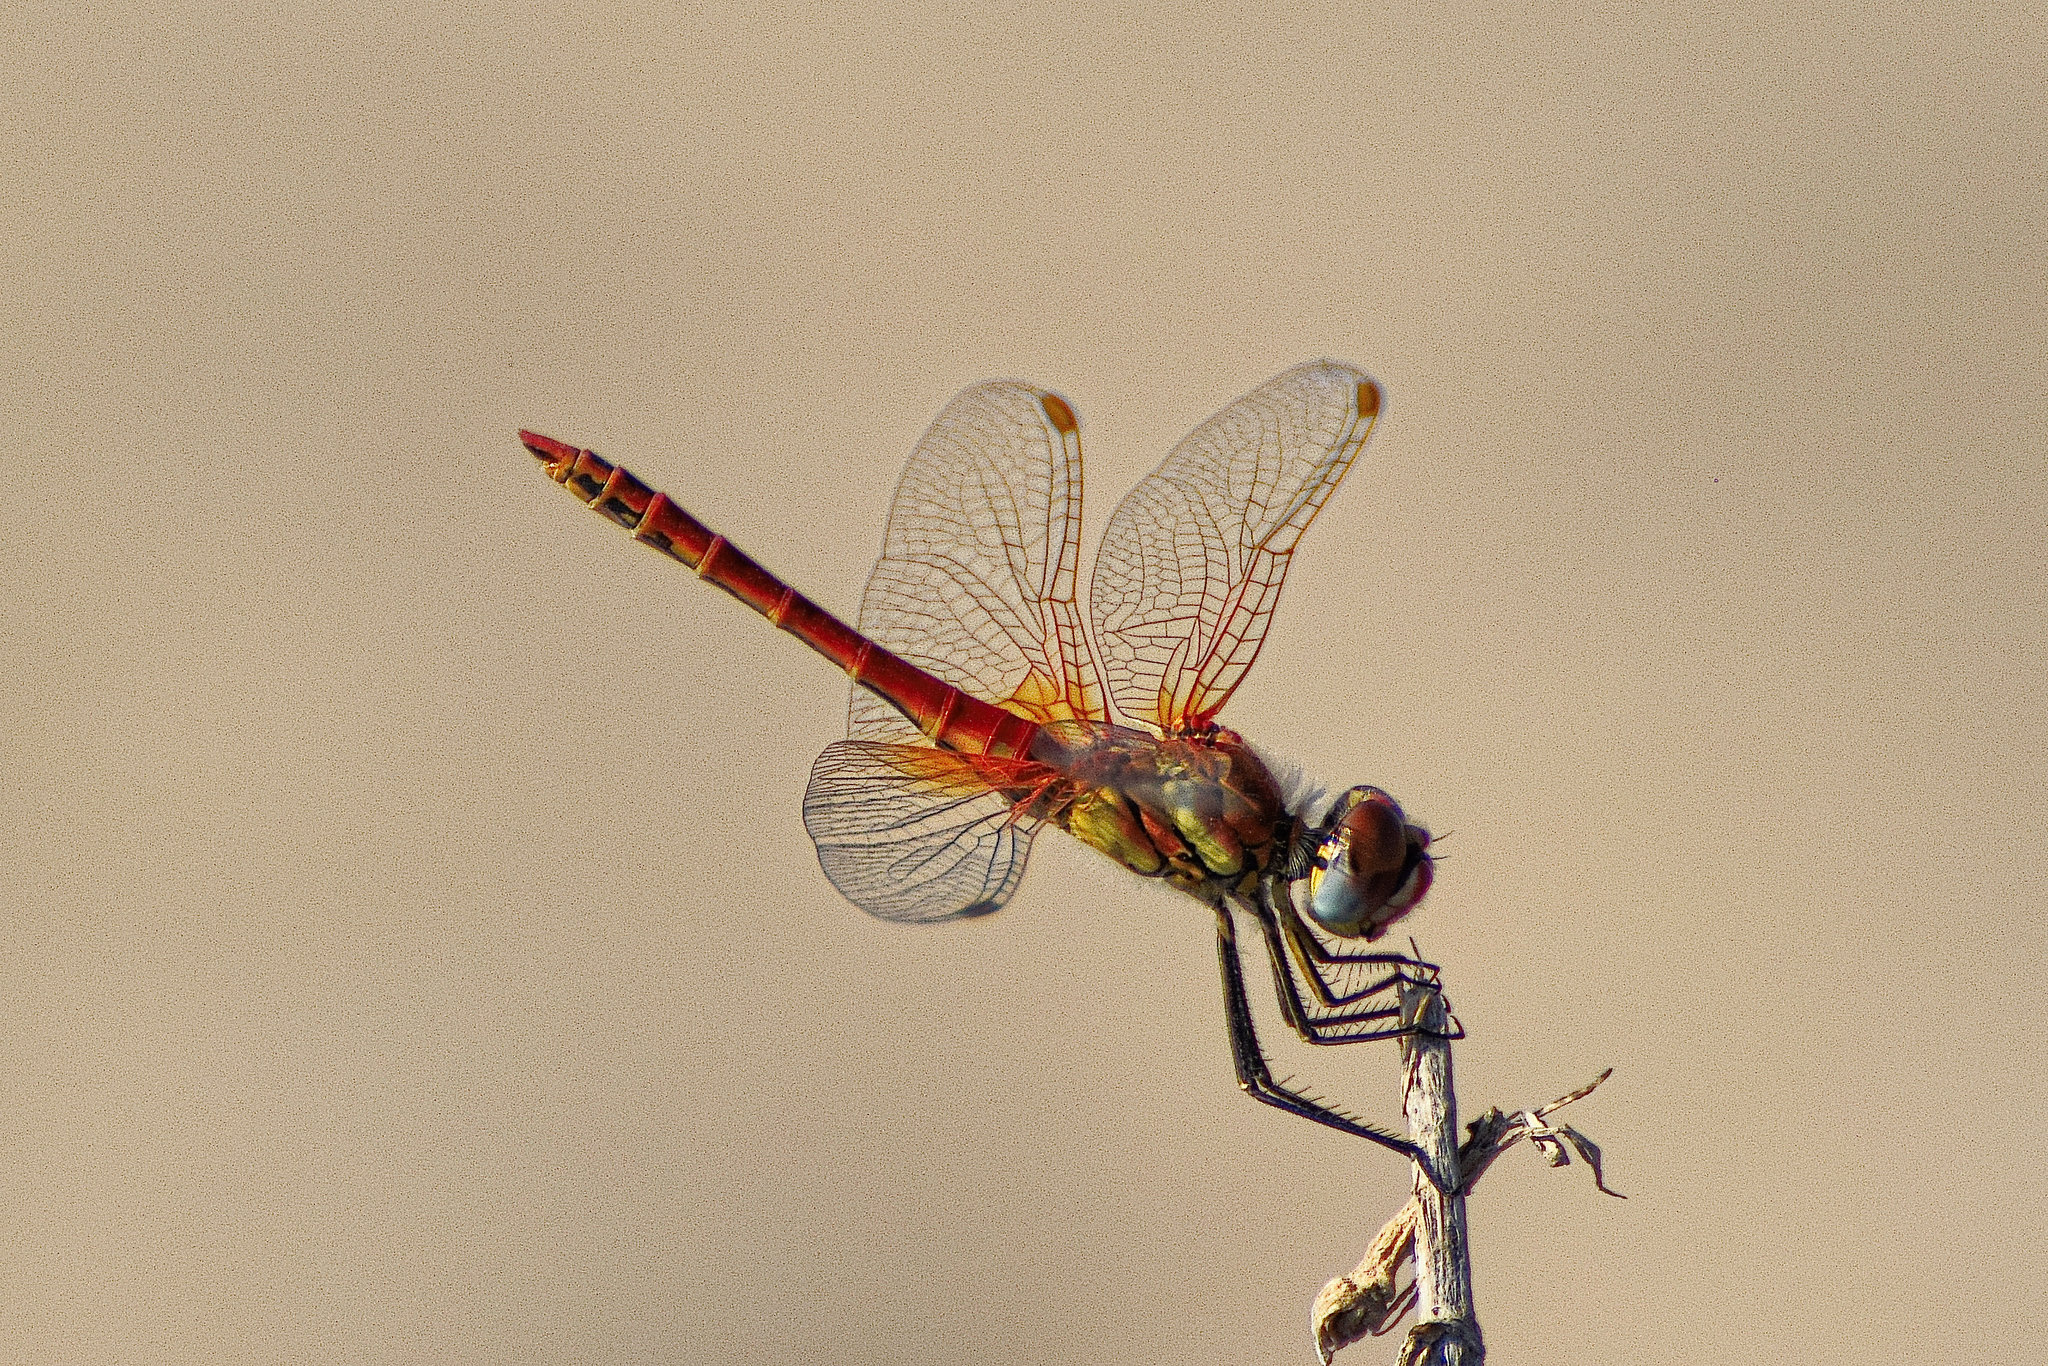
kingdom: Animalia
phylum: Arthropoda
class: Insecta
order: Odonata
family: Libellulidae
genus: Sympetrum
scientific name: Sympetrum fonscolombii
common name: Red-veined darter
